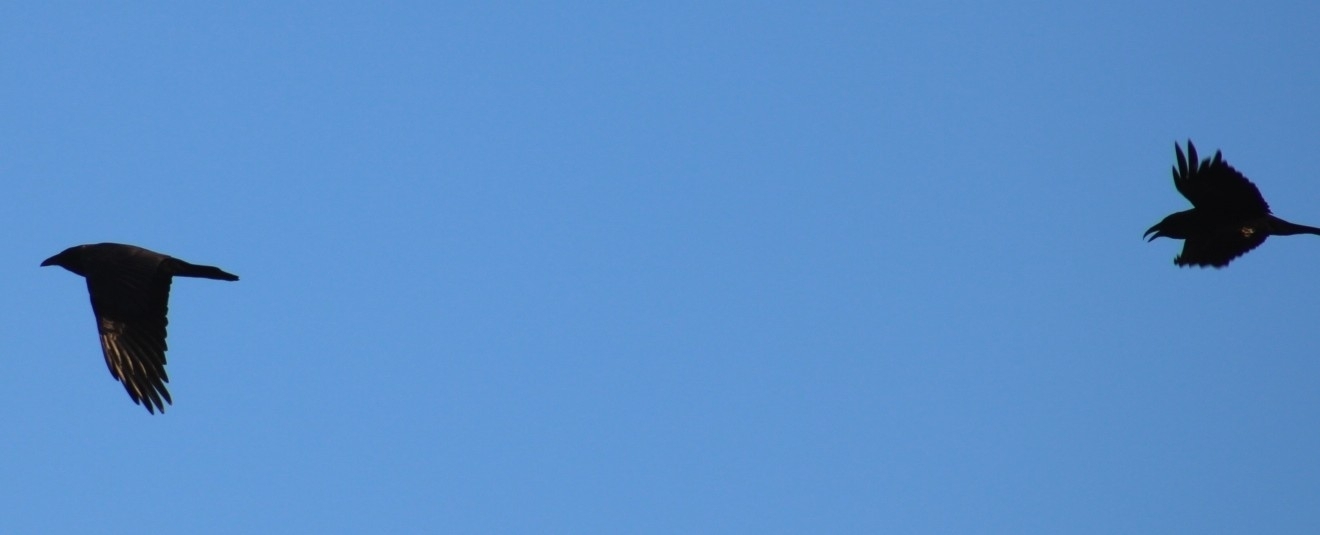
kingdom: Animalia
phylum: Chordata
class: Aves
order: Passeriformes
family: Corvidae
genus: Corvus
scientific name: Corvus corax
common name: Common raven
